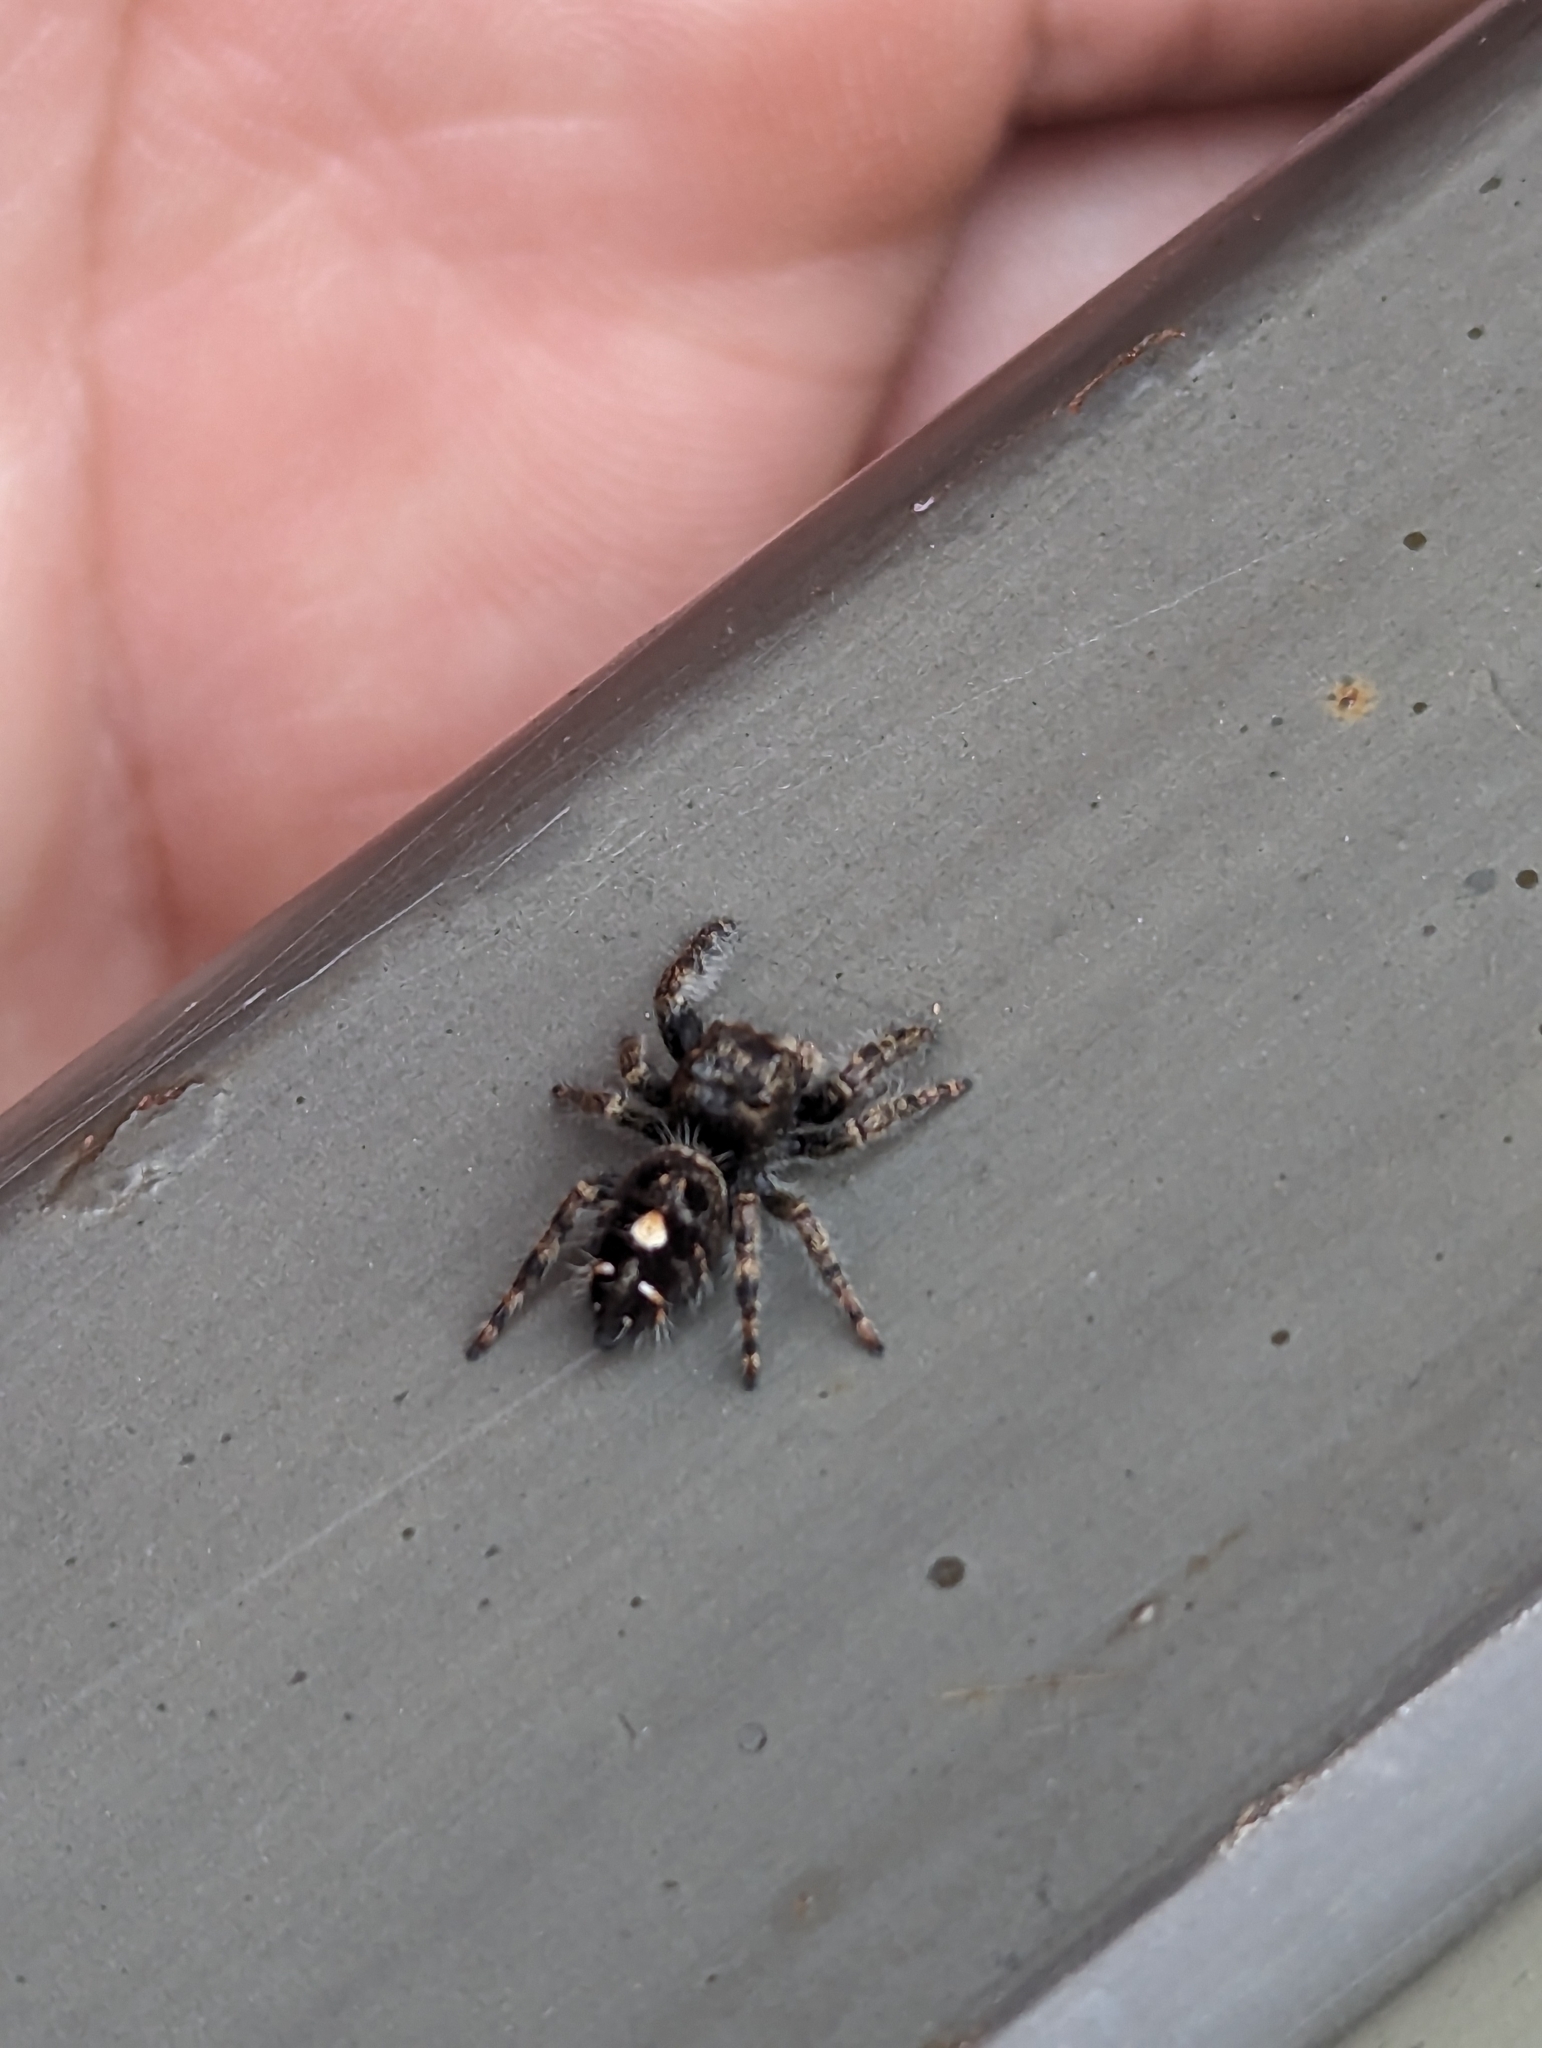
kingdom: Animalia
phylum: Arthropoda
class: Arachnida
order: Araneae
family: Salticidae
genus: Phidippus
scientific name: Phidippus audax
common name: Bold jumper
